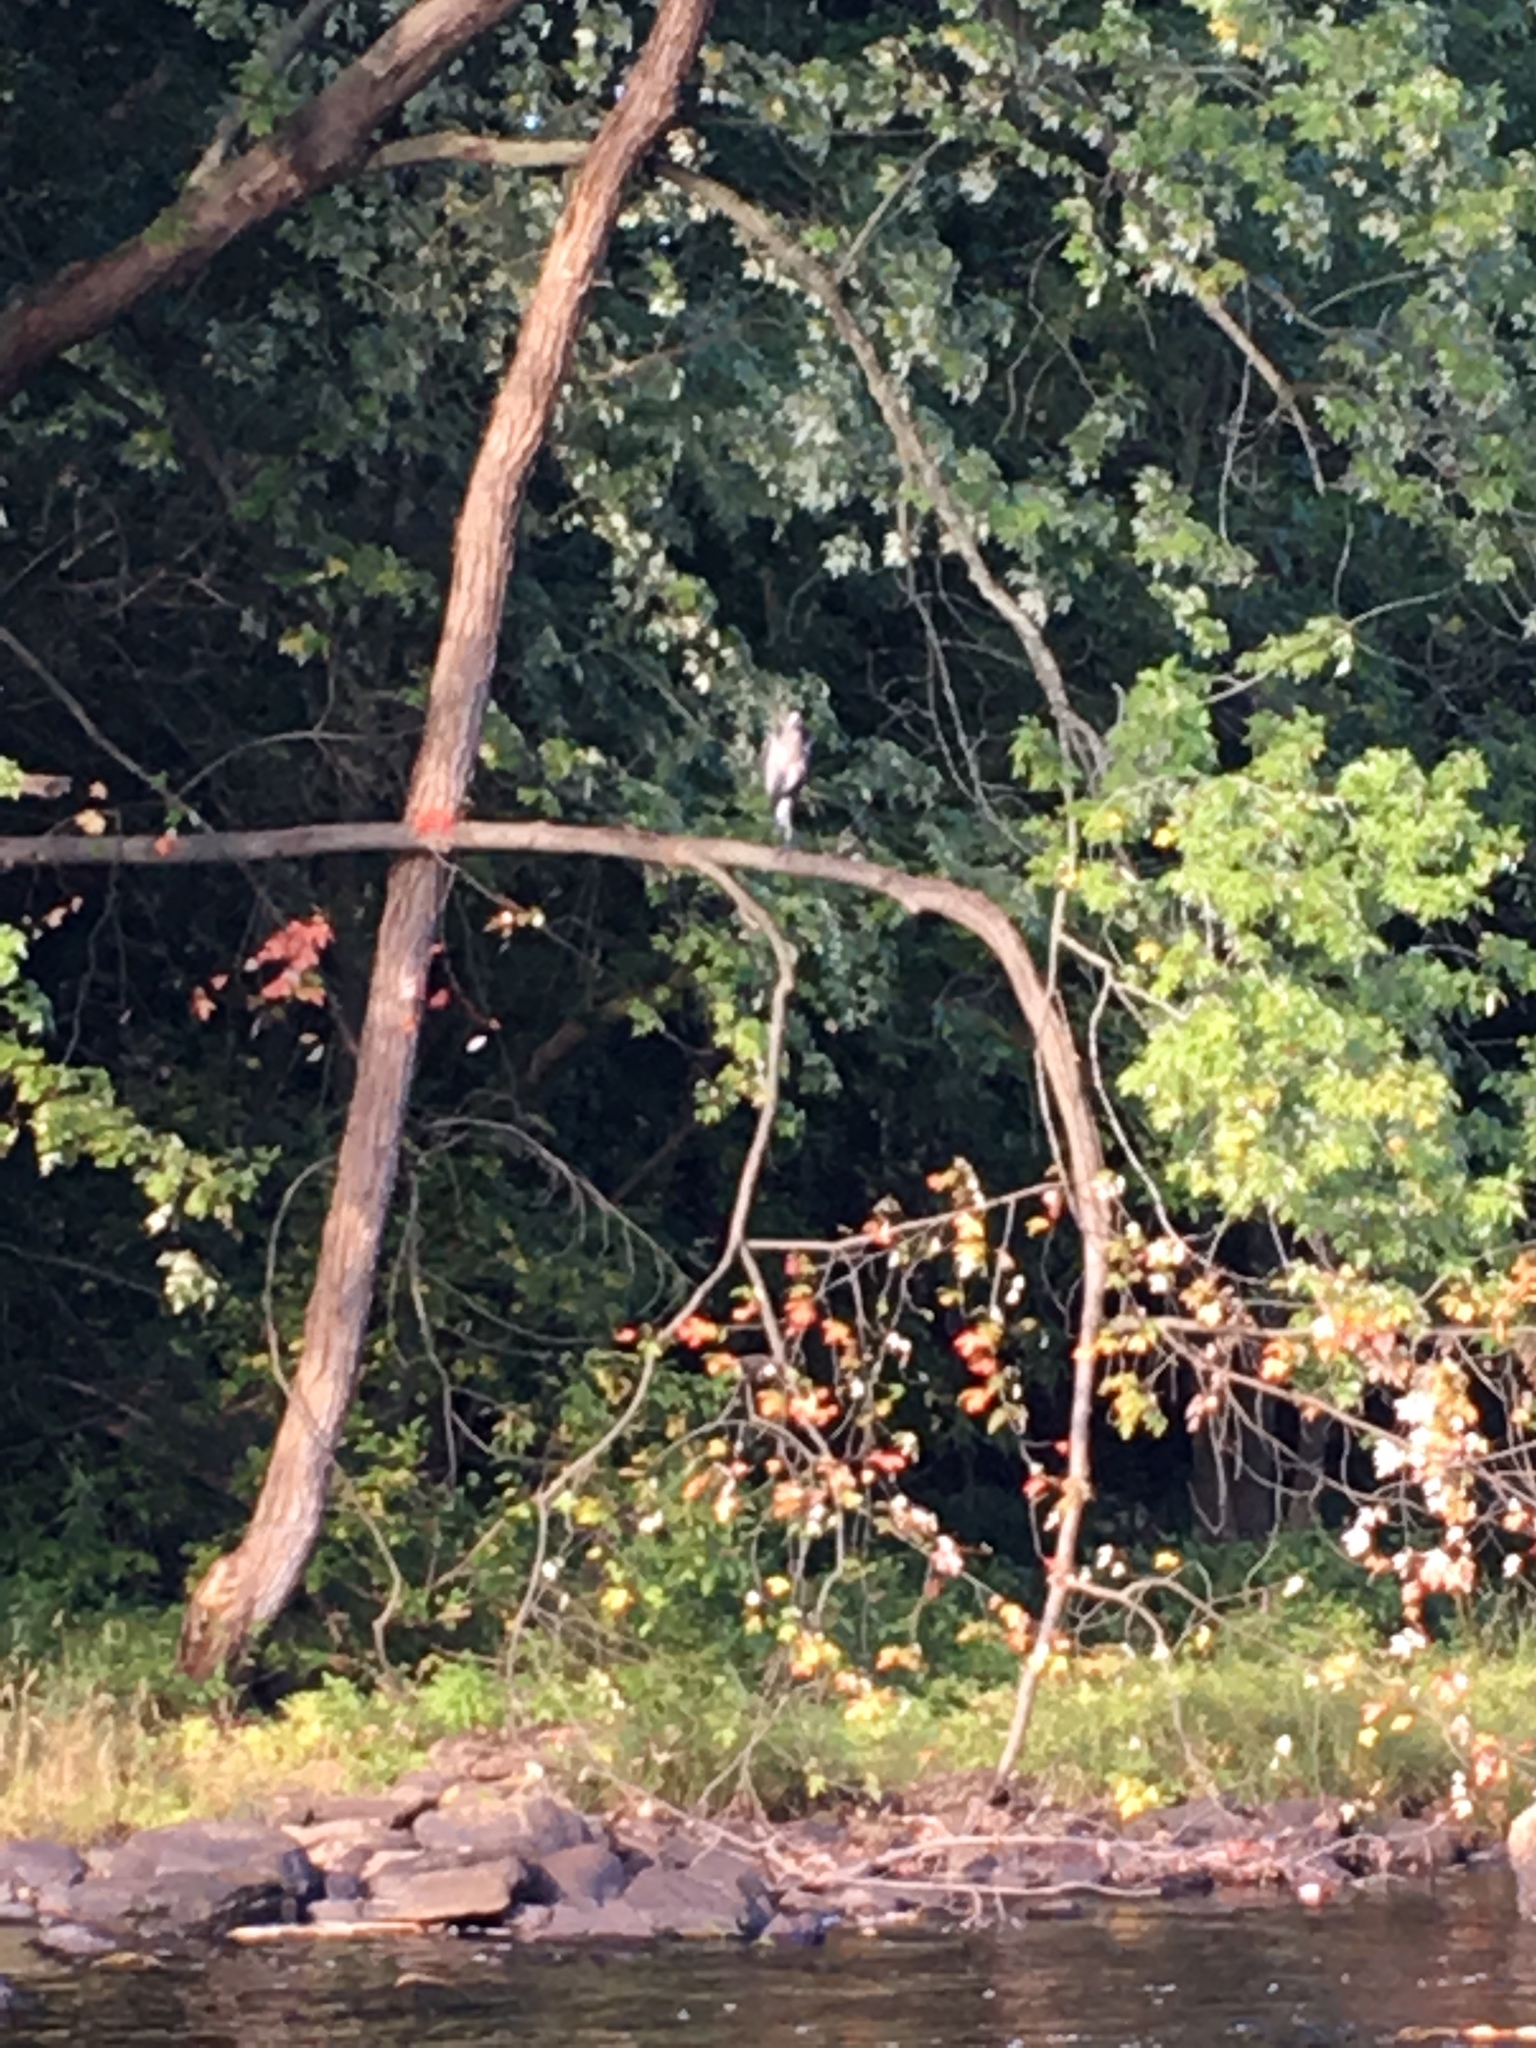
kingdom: Animalia
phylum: Chordata
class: Aves
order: Pelecaniformes
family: Ardeidae
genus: Ardea
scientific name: Ardea herodias
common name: Great blue heron
